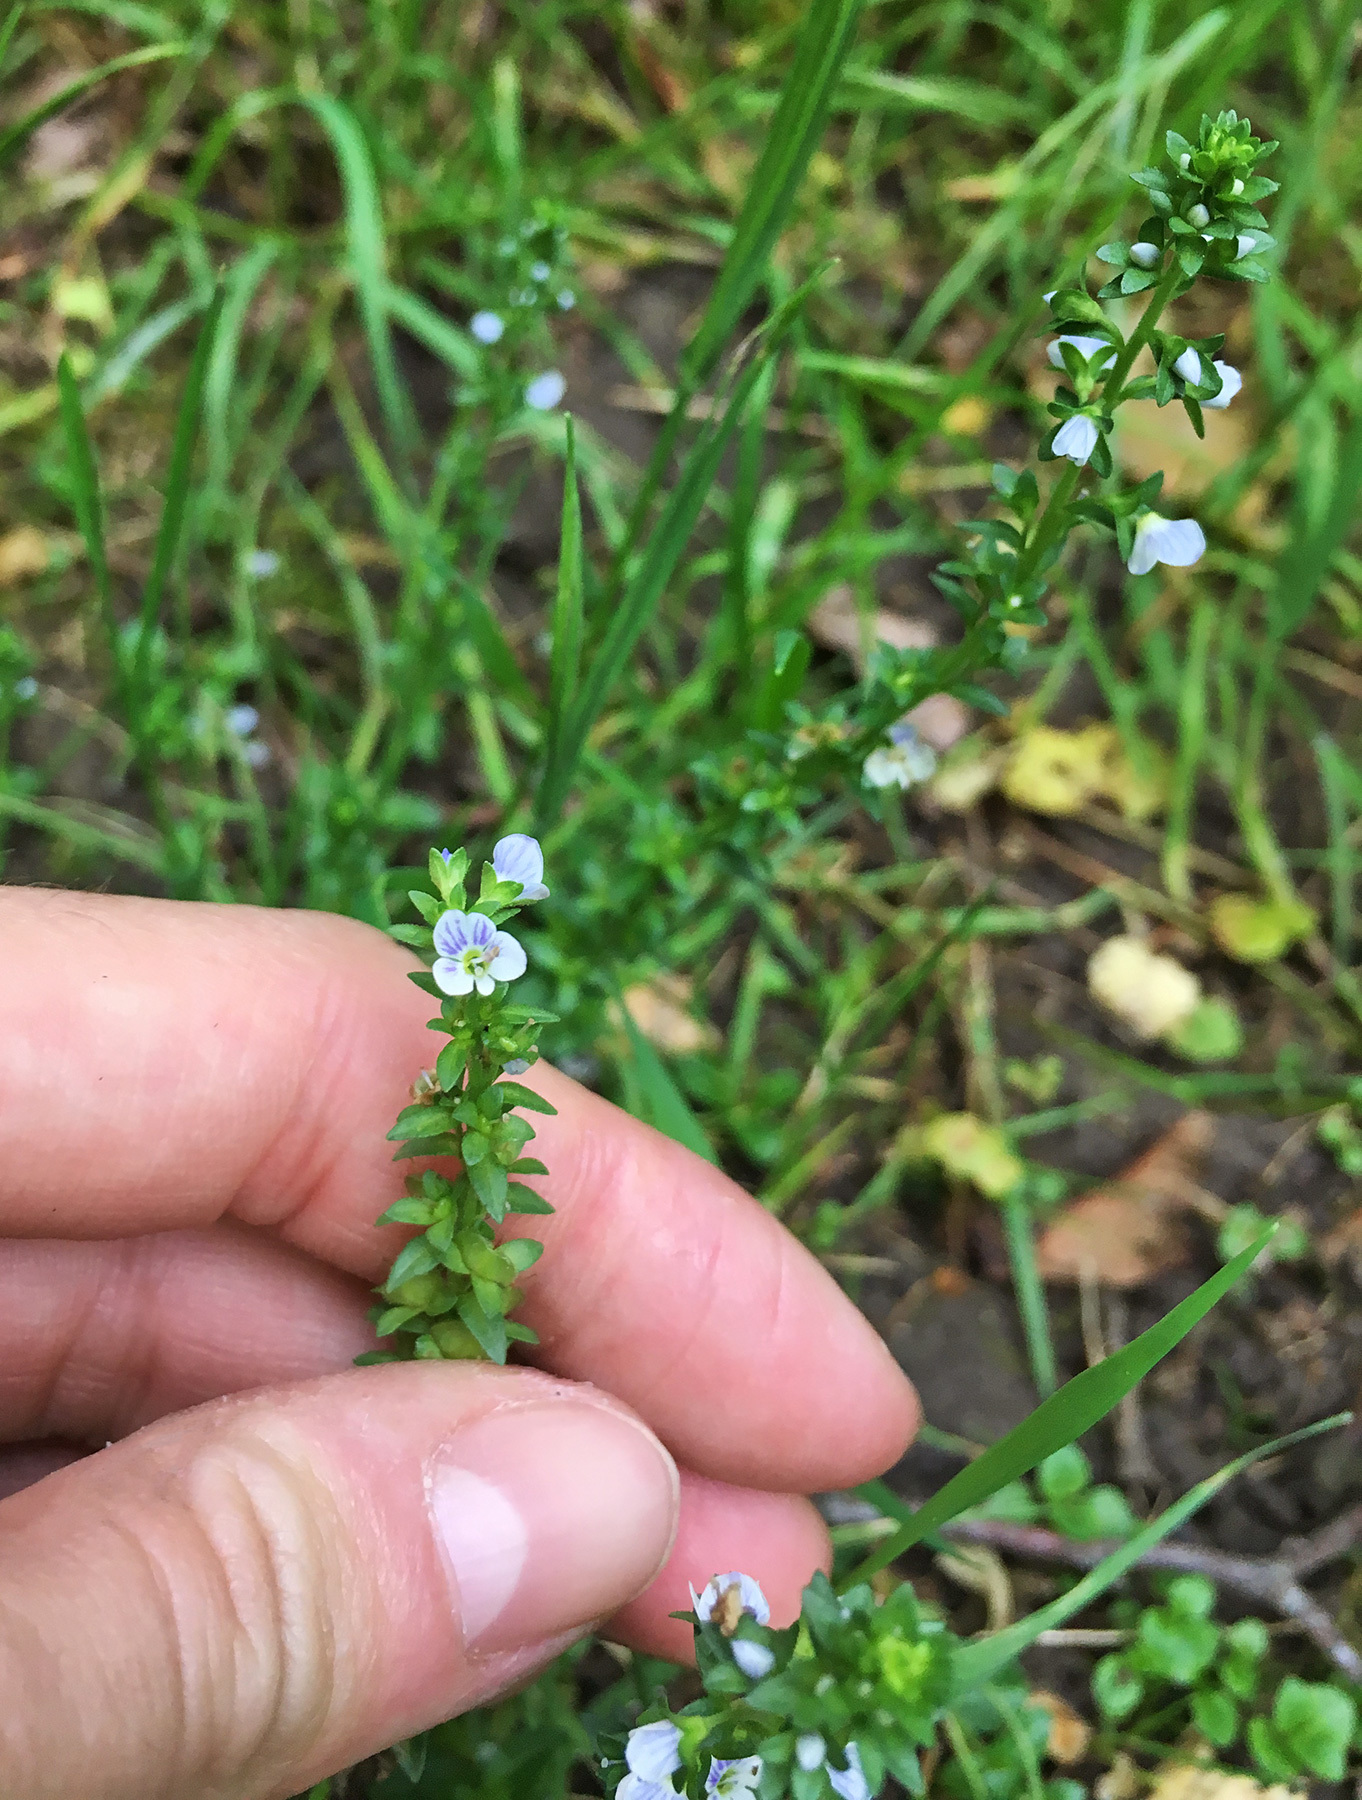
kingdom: Plantae
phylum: Tracheophyta
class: Magnoliopsida
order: Lamiales
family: Plantaginaceae
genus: Veronica
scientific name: Veronica serpyllifolia
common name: Thyme-leaved speedwell
